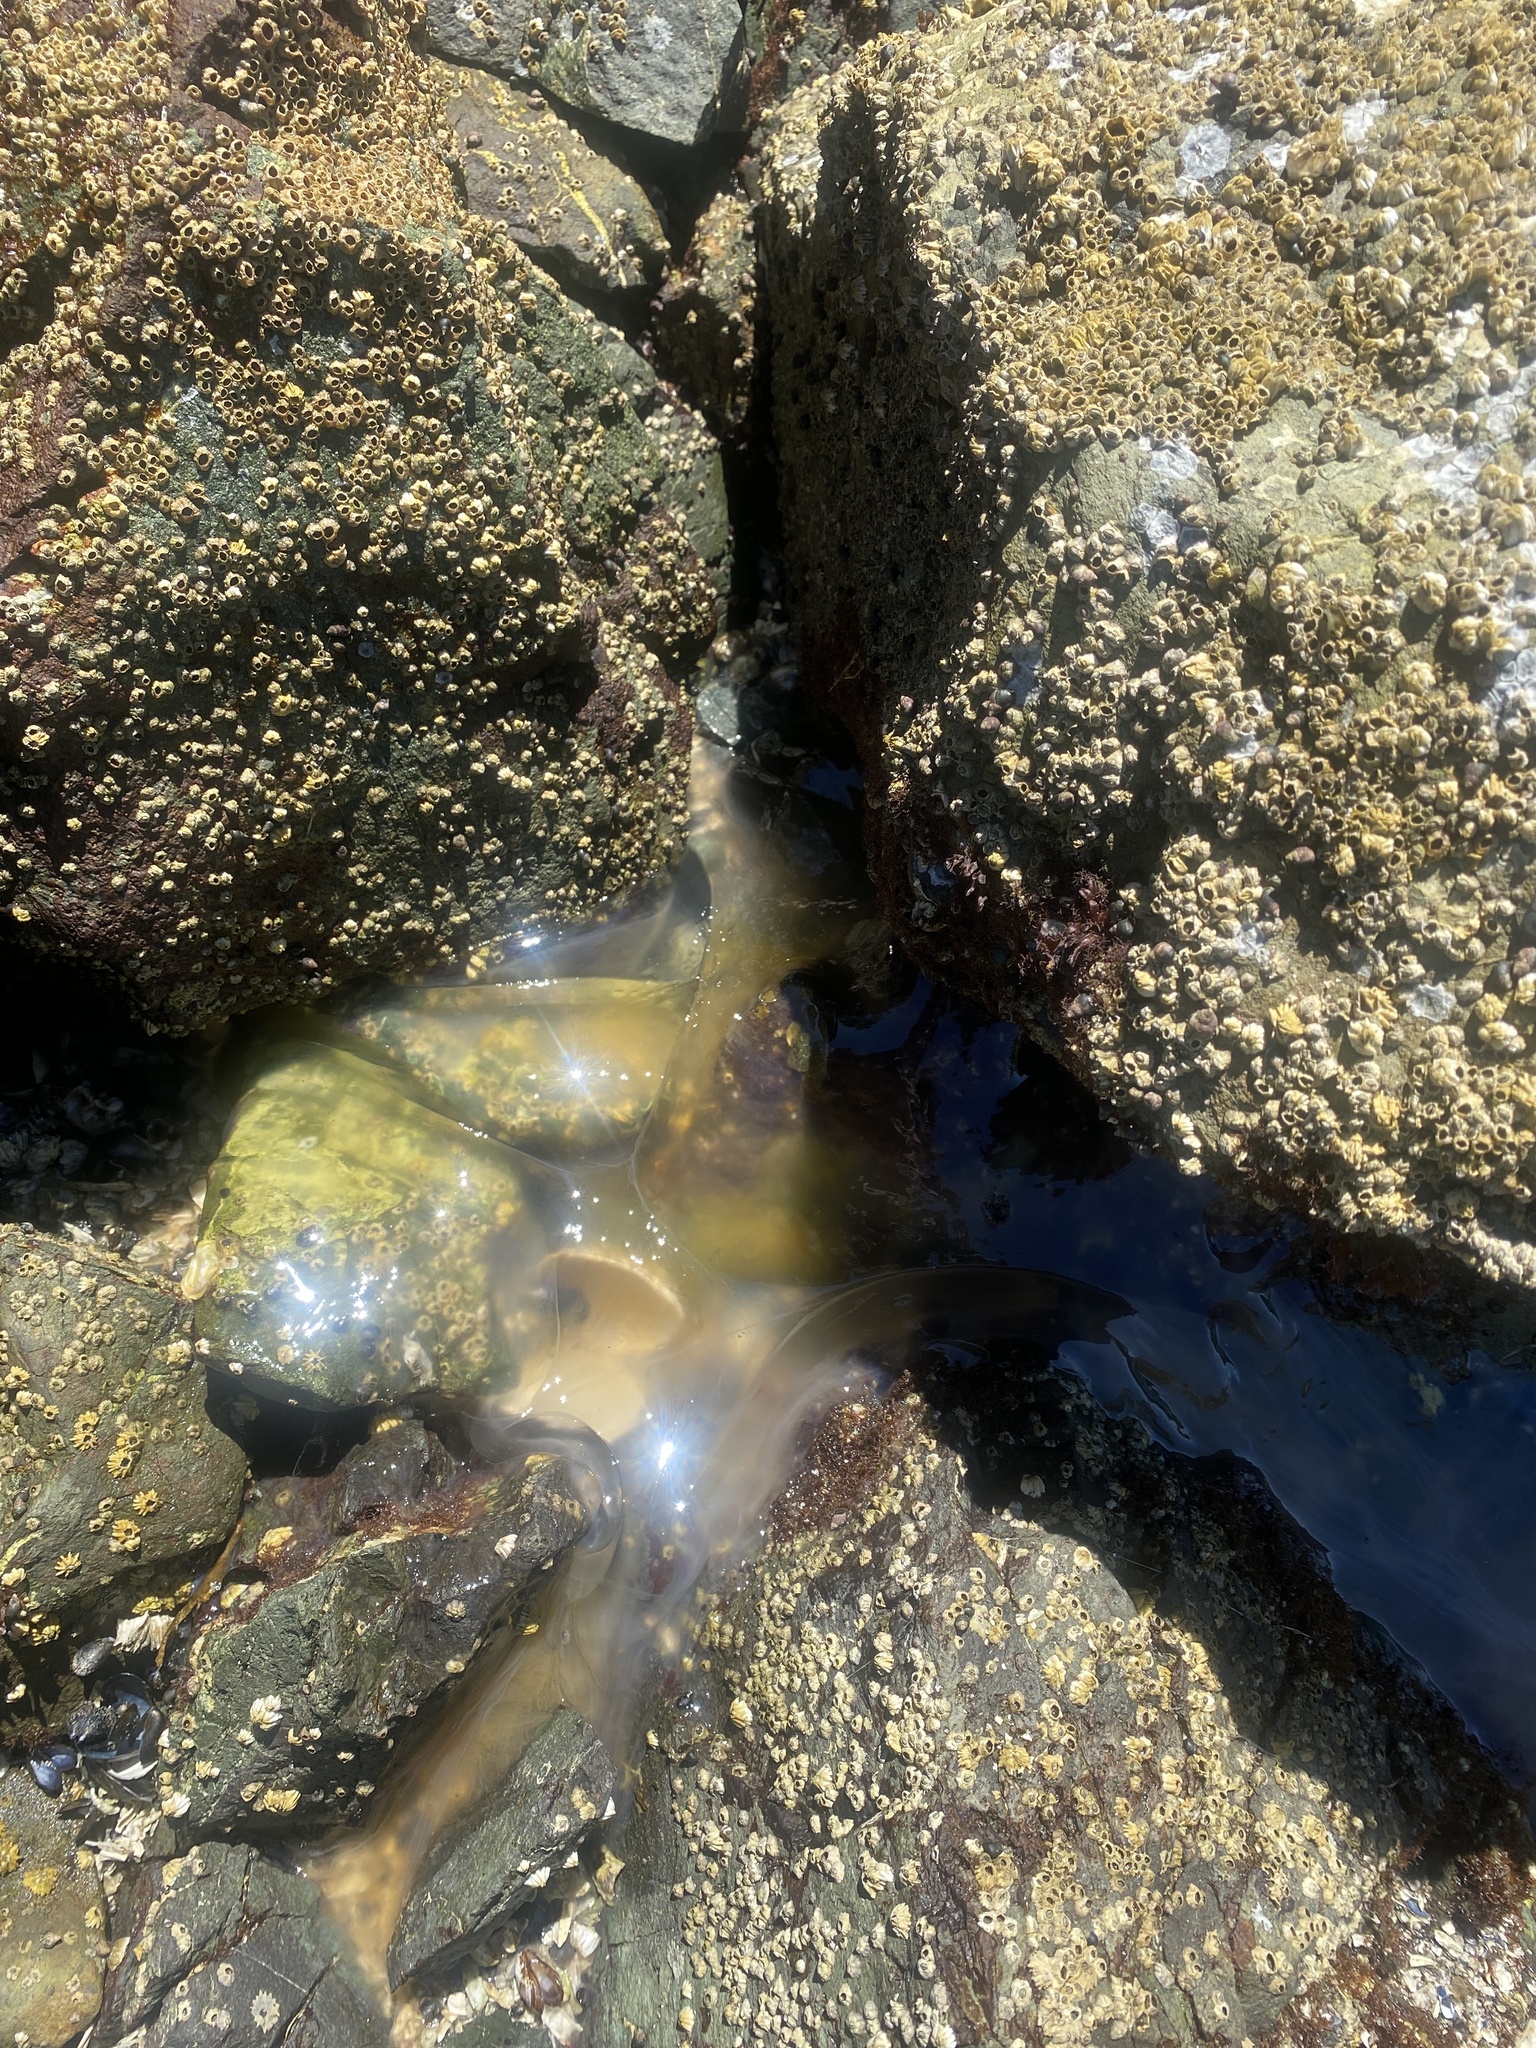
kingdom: Animalia
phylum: Cnidaria
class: Scyphozoa
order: Semaeostomeae
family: Phacellophoridae
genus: Phacellophora
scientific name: Phacellophora camtschatica
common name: Fried-egg jellyfish
